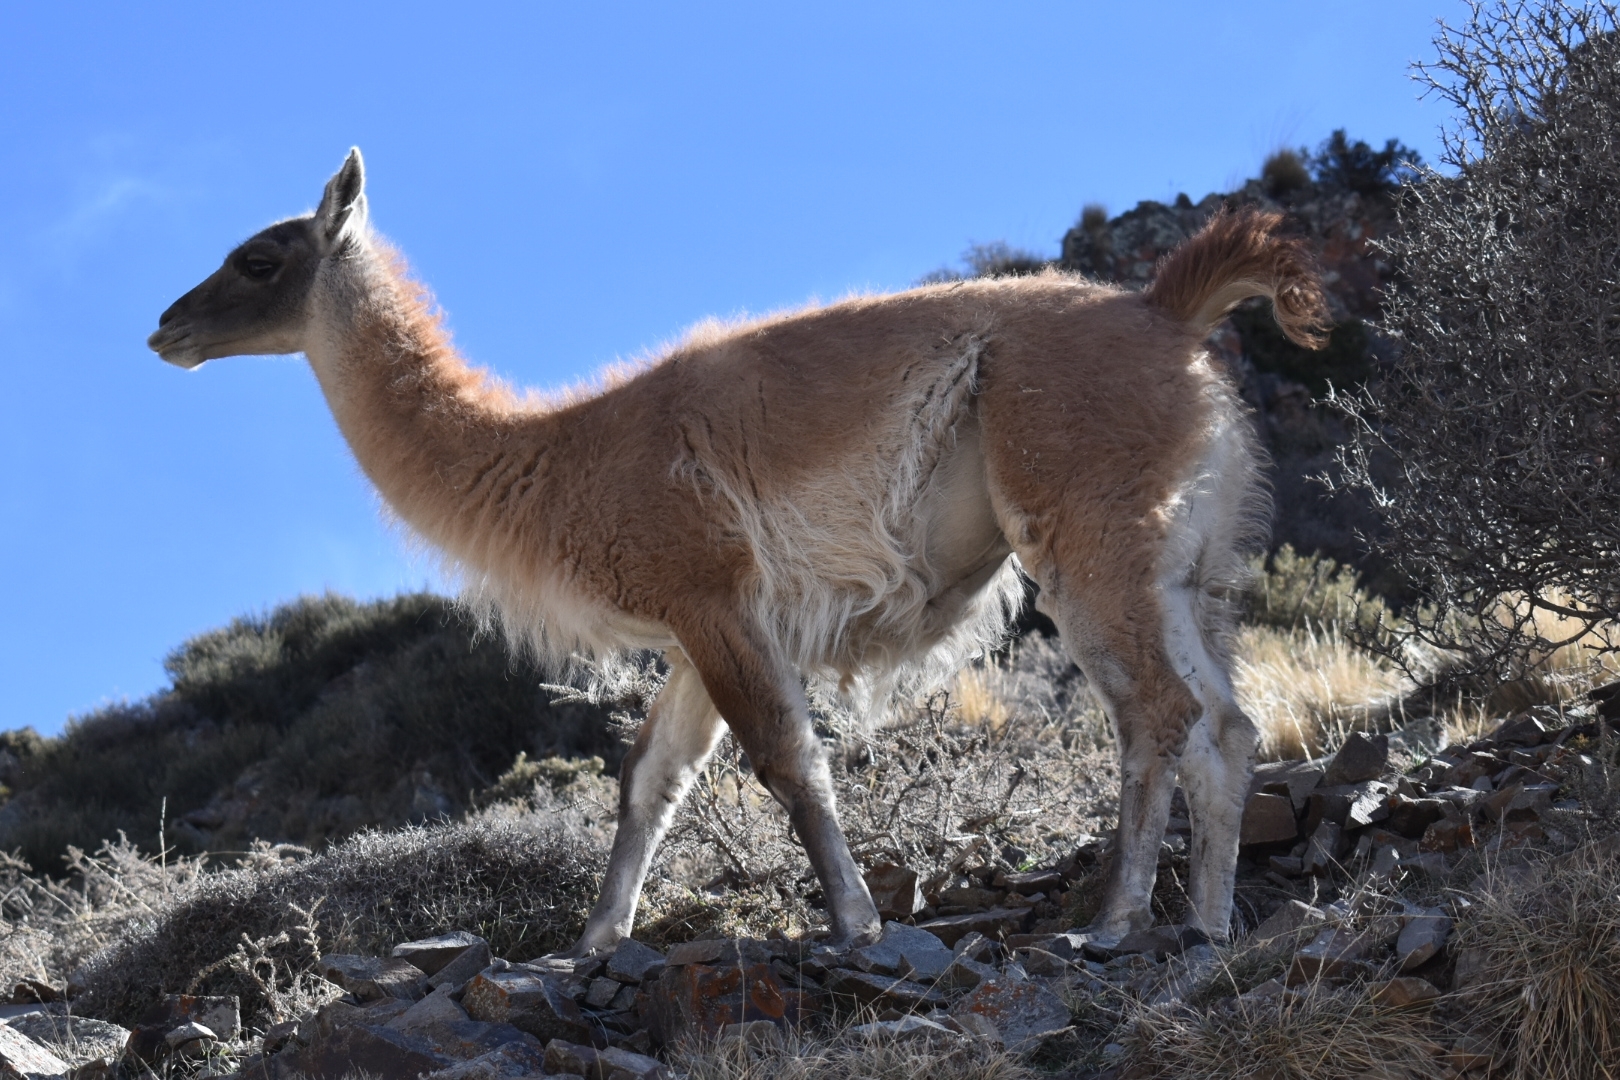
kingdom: Animalia
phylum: Chordata
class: Mammalia
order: Artiodactyla
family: Camelidae
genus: Lama
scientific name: Lama glama
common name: Llama
